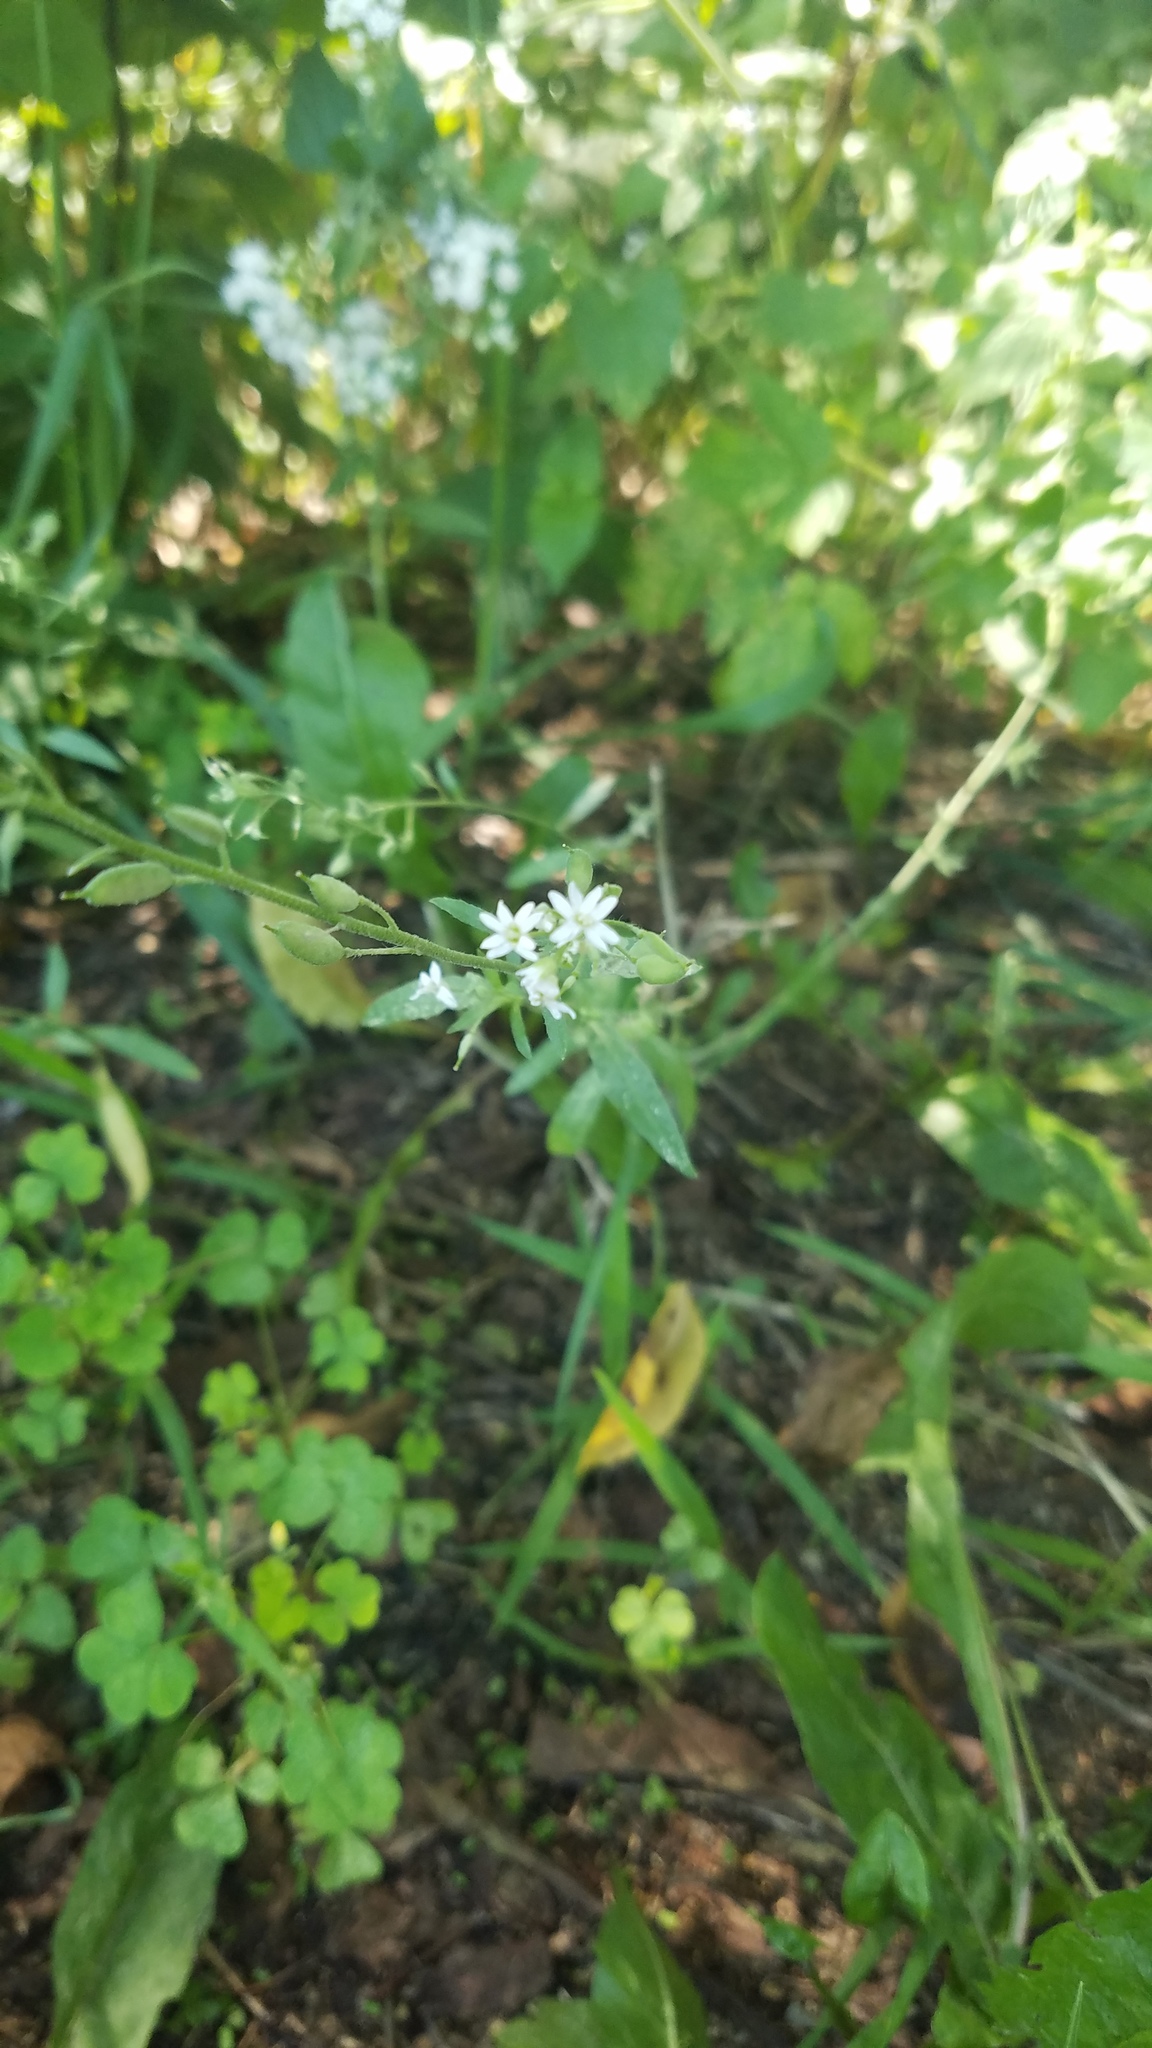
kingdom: Plantae
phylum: Tracheophyta
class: Magnoliopsida
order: Brassicales
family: Brassicaceae
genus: Berteroa
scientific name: Berteroa incana
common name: Hoary alison
